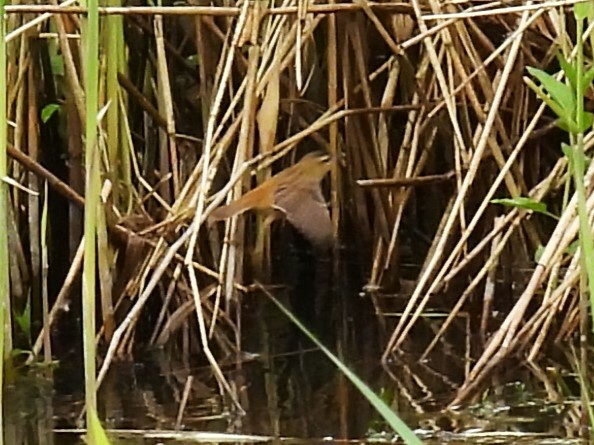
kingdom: Animalia
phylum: Chordata
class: Aves
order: Passeriformes
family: Acrocephalidae
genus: Acrocephalus
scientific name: Acrocephalus schoenobaenus
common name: Sedge warbler
